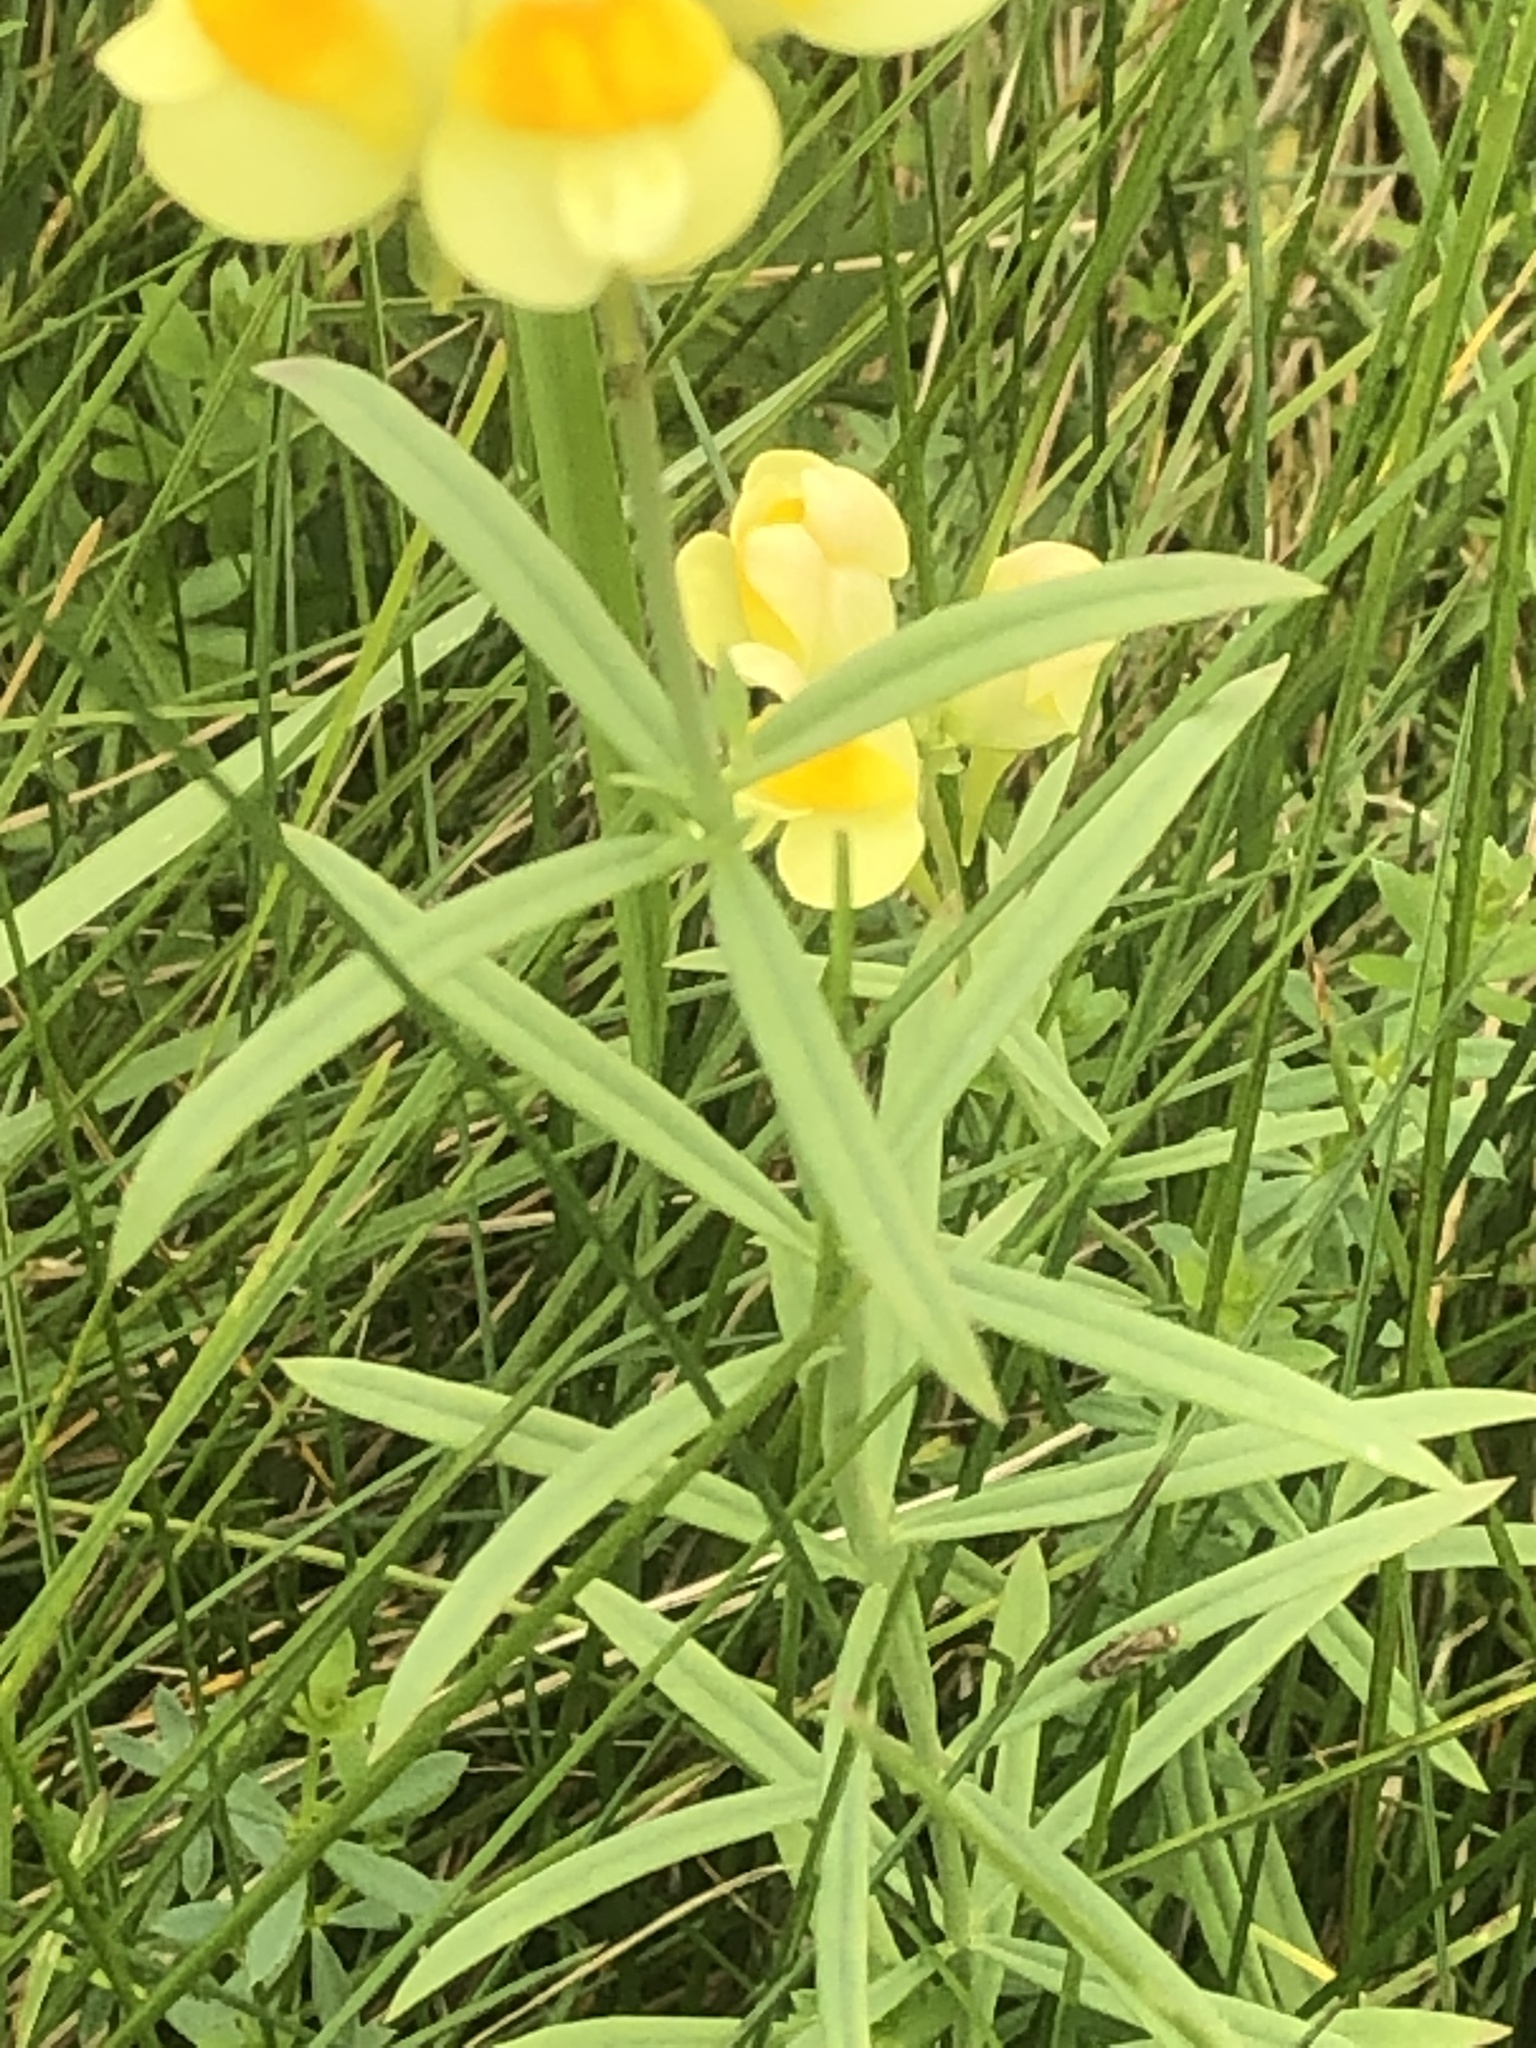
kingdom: Plantae
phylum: Tracheophyta
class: Magnoliopsida
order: Lamiales
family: Plantaginaceae
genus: Linaria
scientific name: Linaria vulgaris
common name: Butter and eggs
